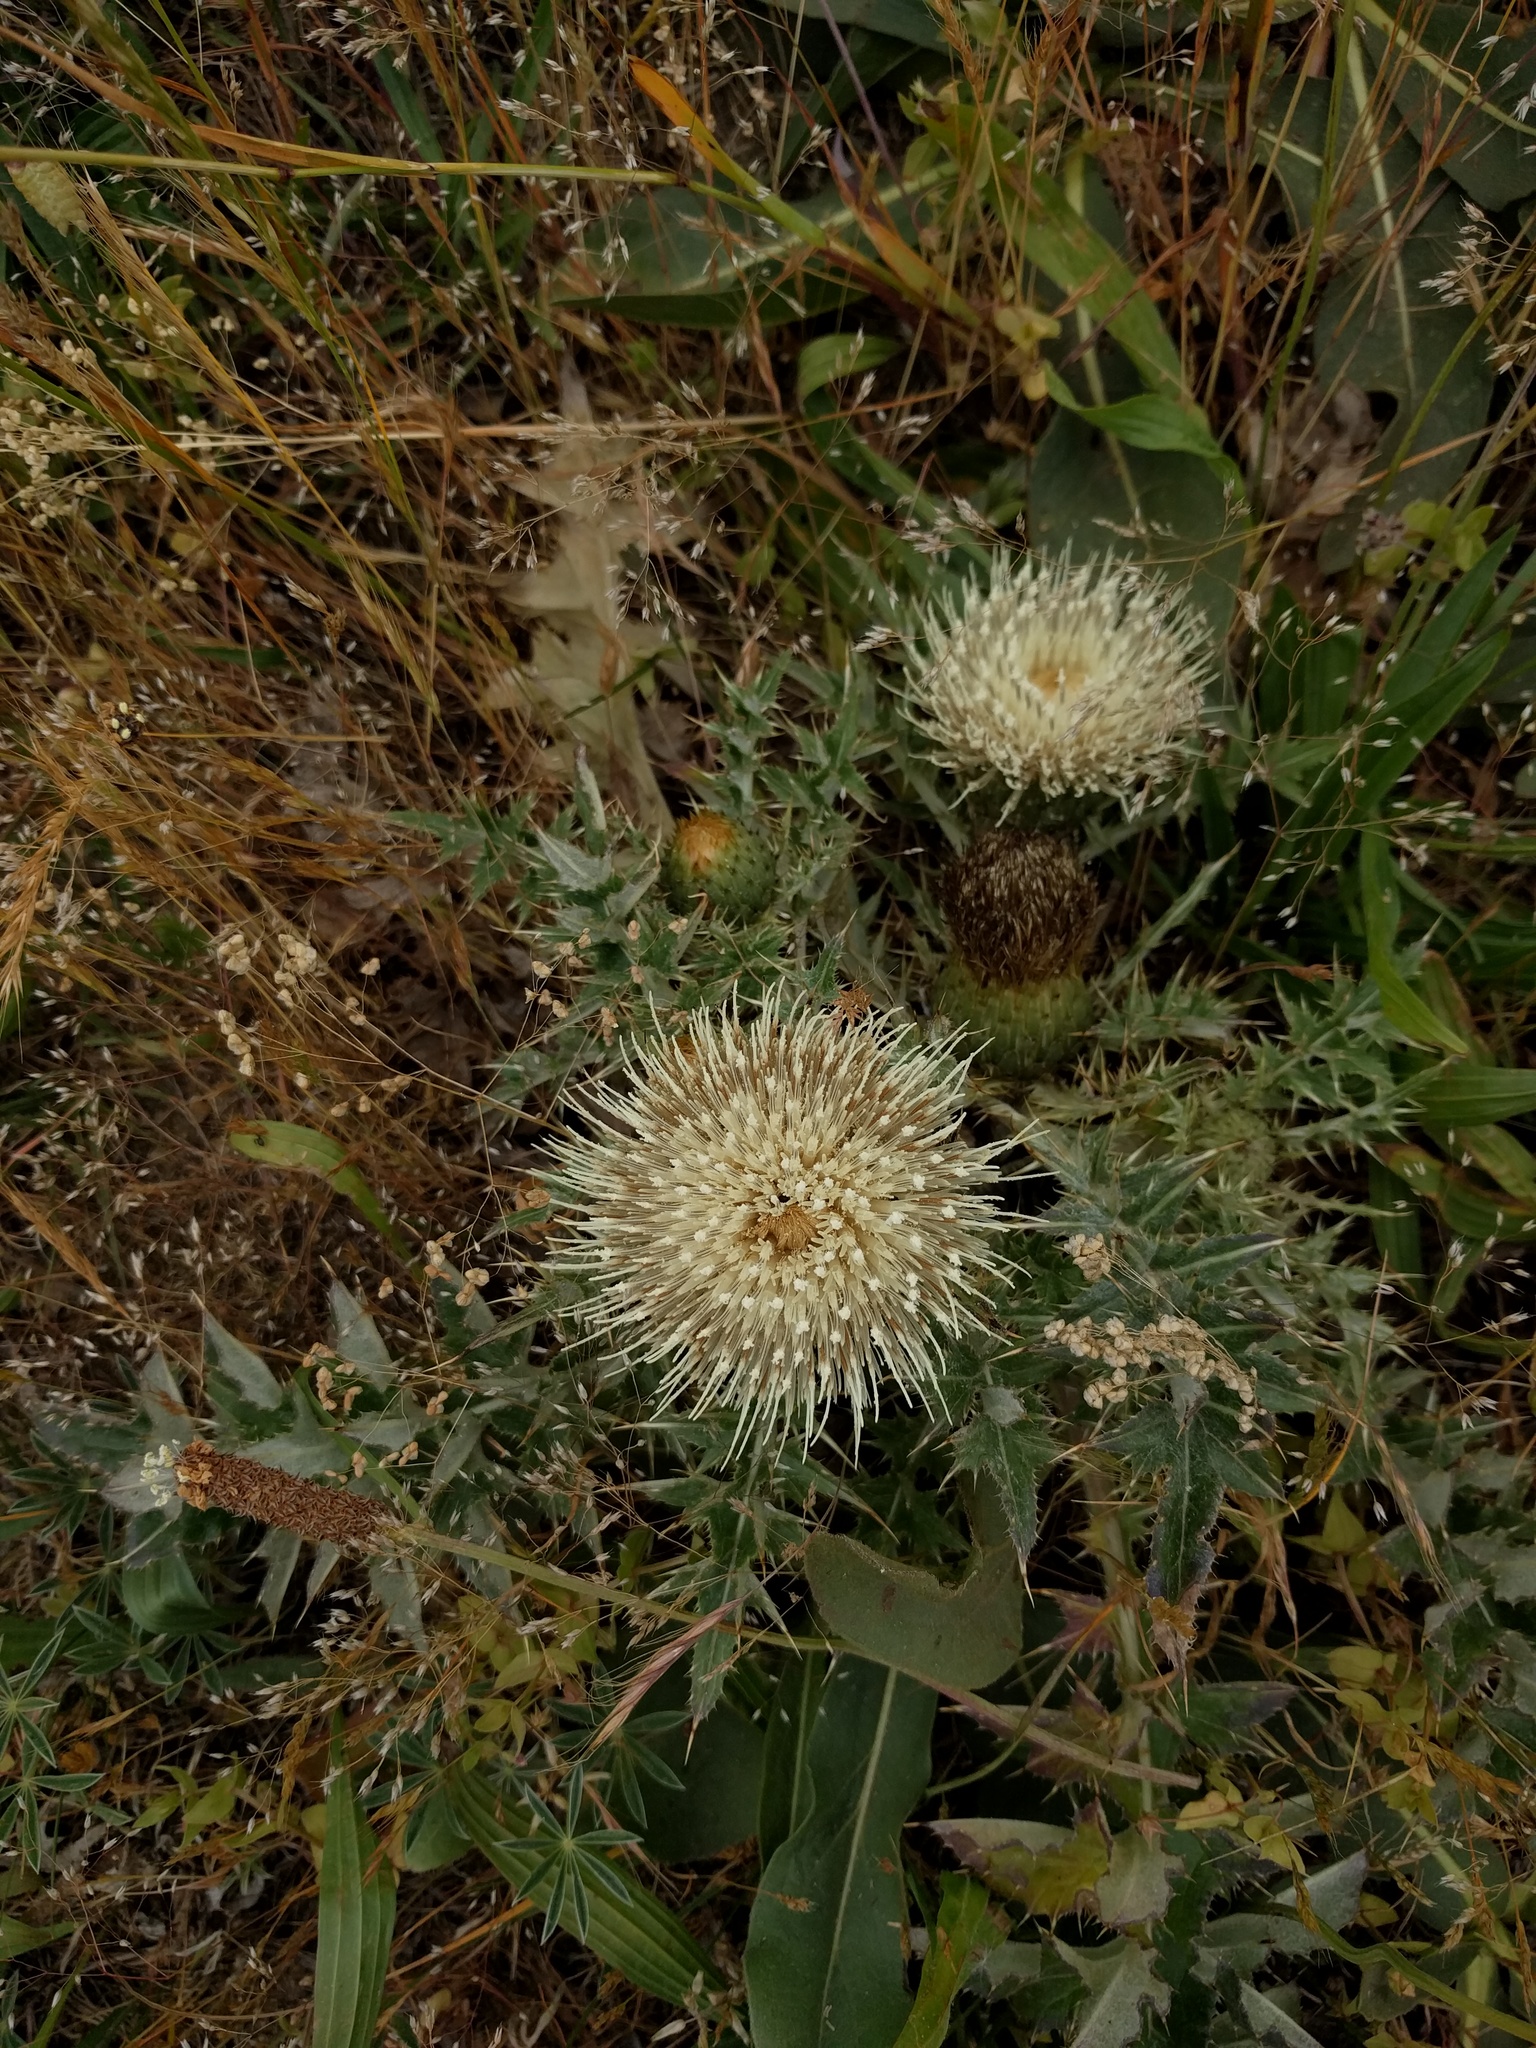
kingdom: Plantae
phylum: Tracheophyta
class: Magnoliopsida
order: Asterales
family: Asteraceae
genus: Cirsium
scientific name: Cirsium quercetorum
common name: Alameda county thistle
